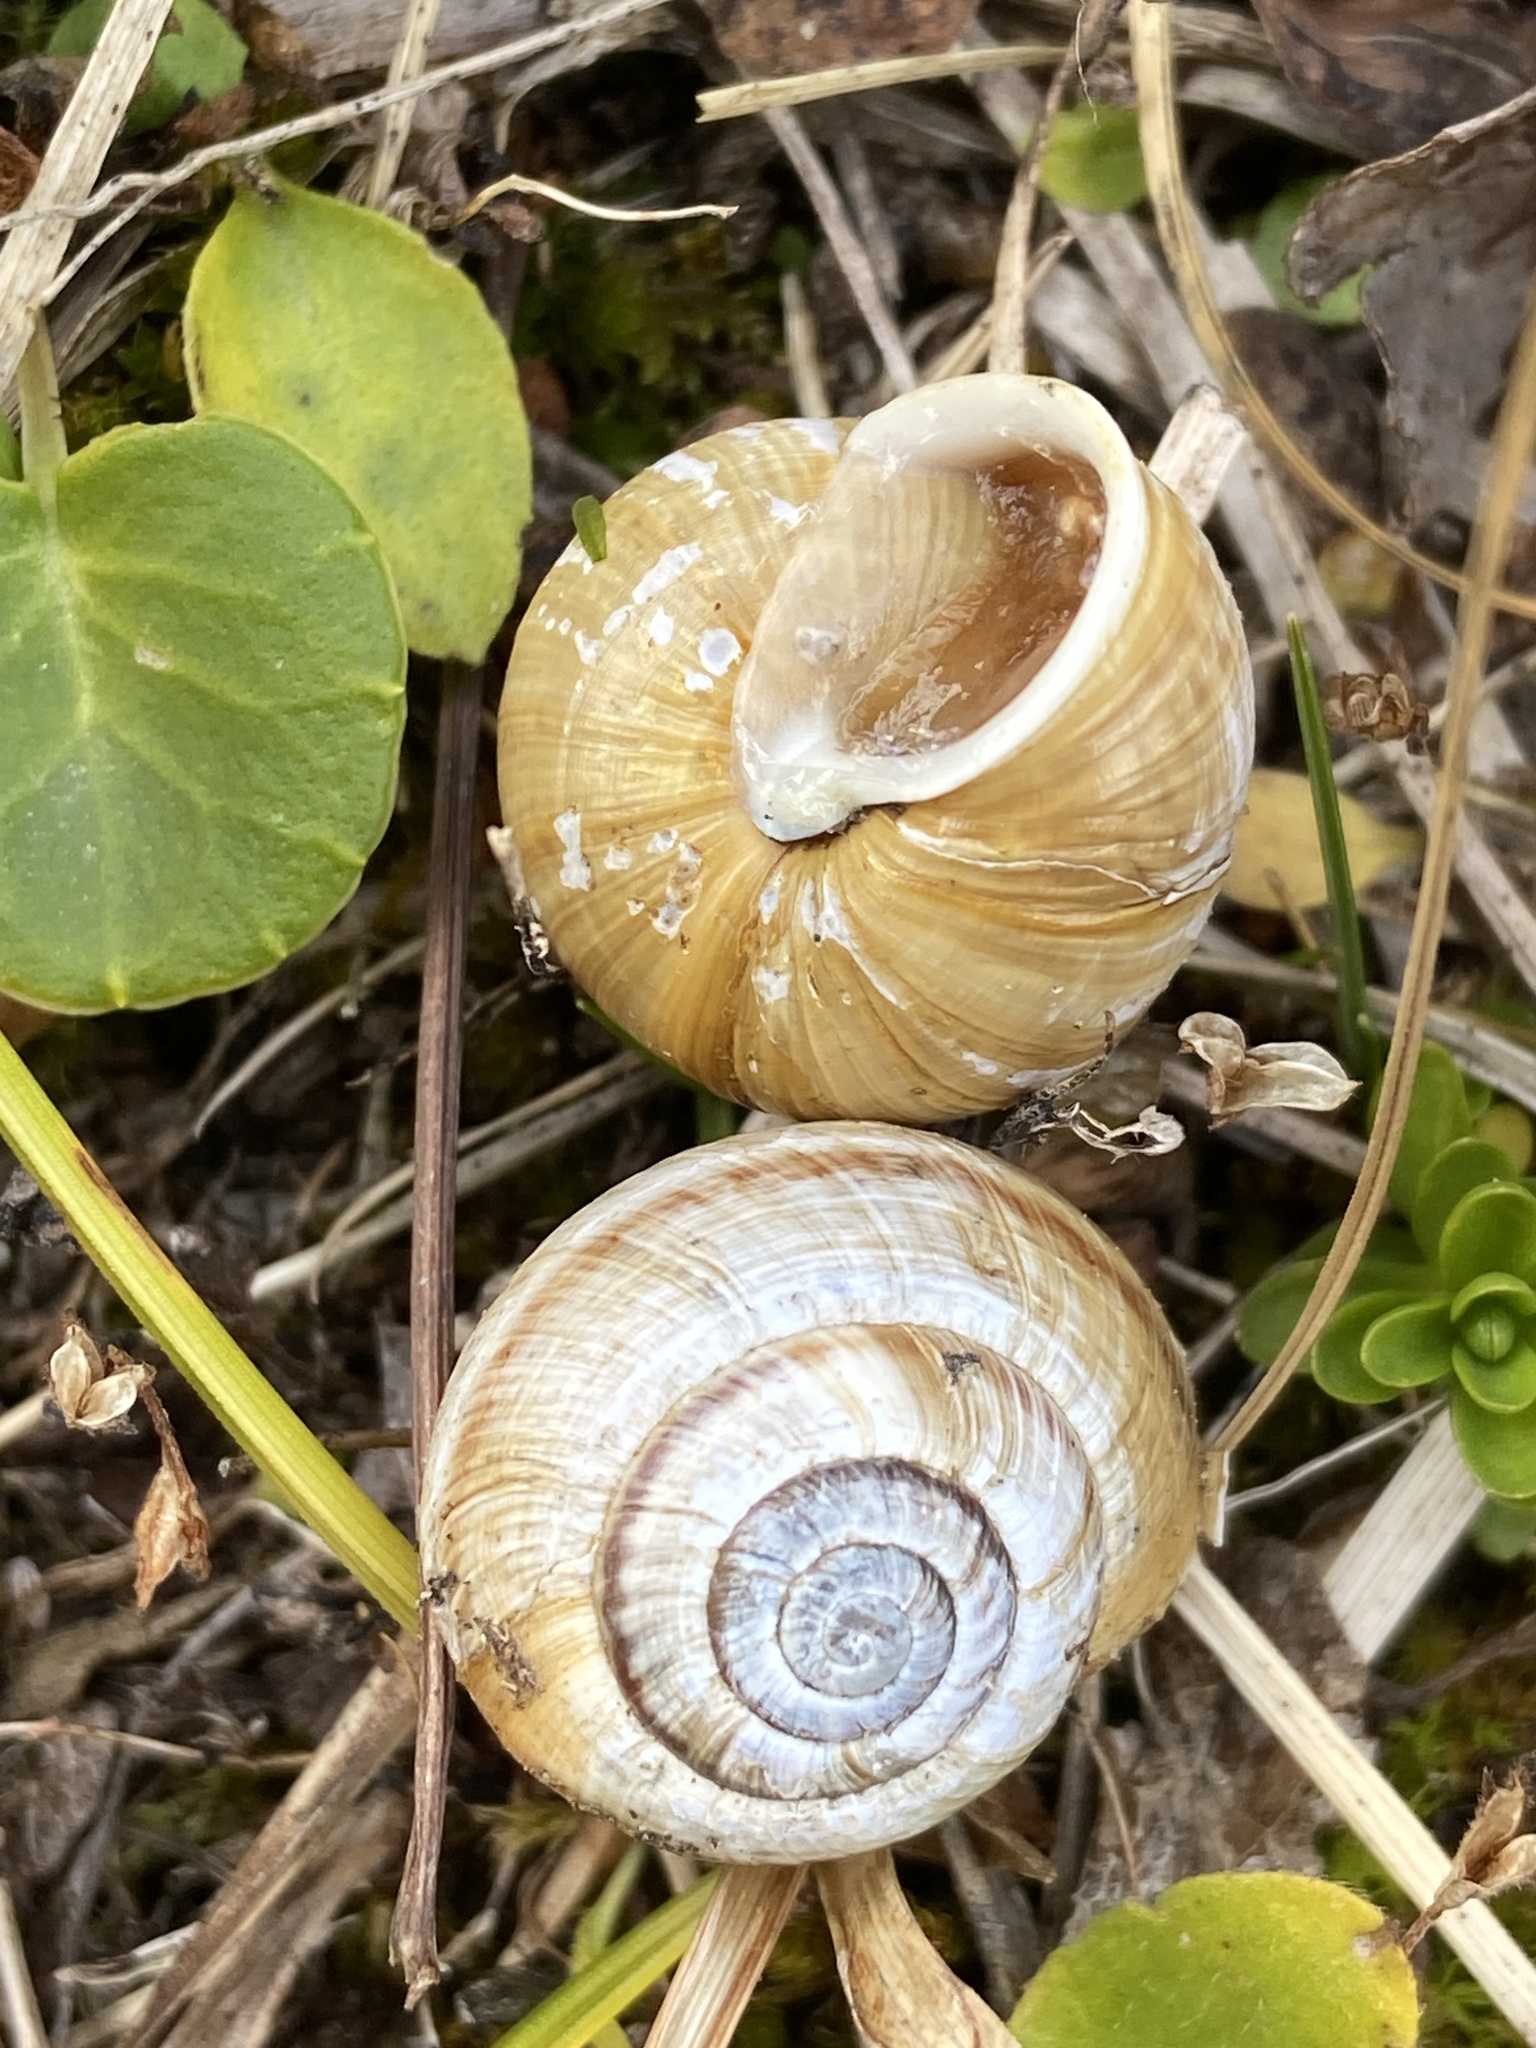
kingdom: Animalia
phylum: Mollusca
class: Gastropoda
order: Stylommatophora
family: Helicidae
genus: Arianta
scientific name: Arianta arbustorum
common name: Copse snail
